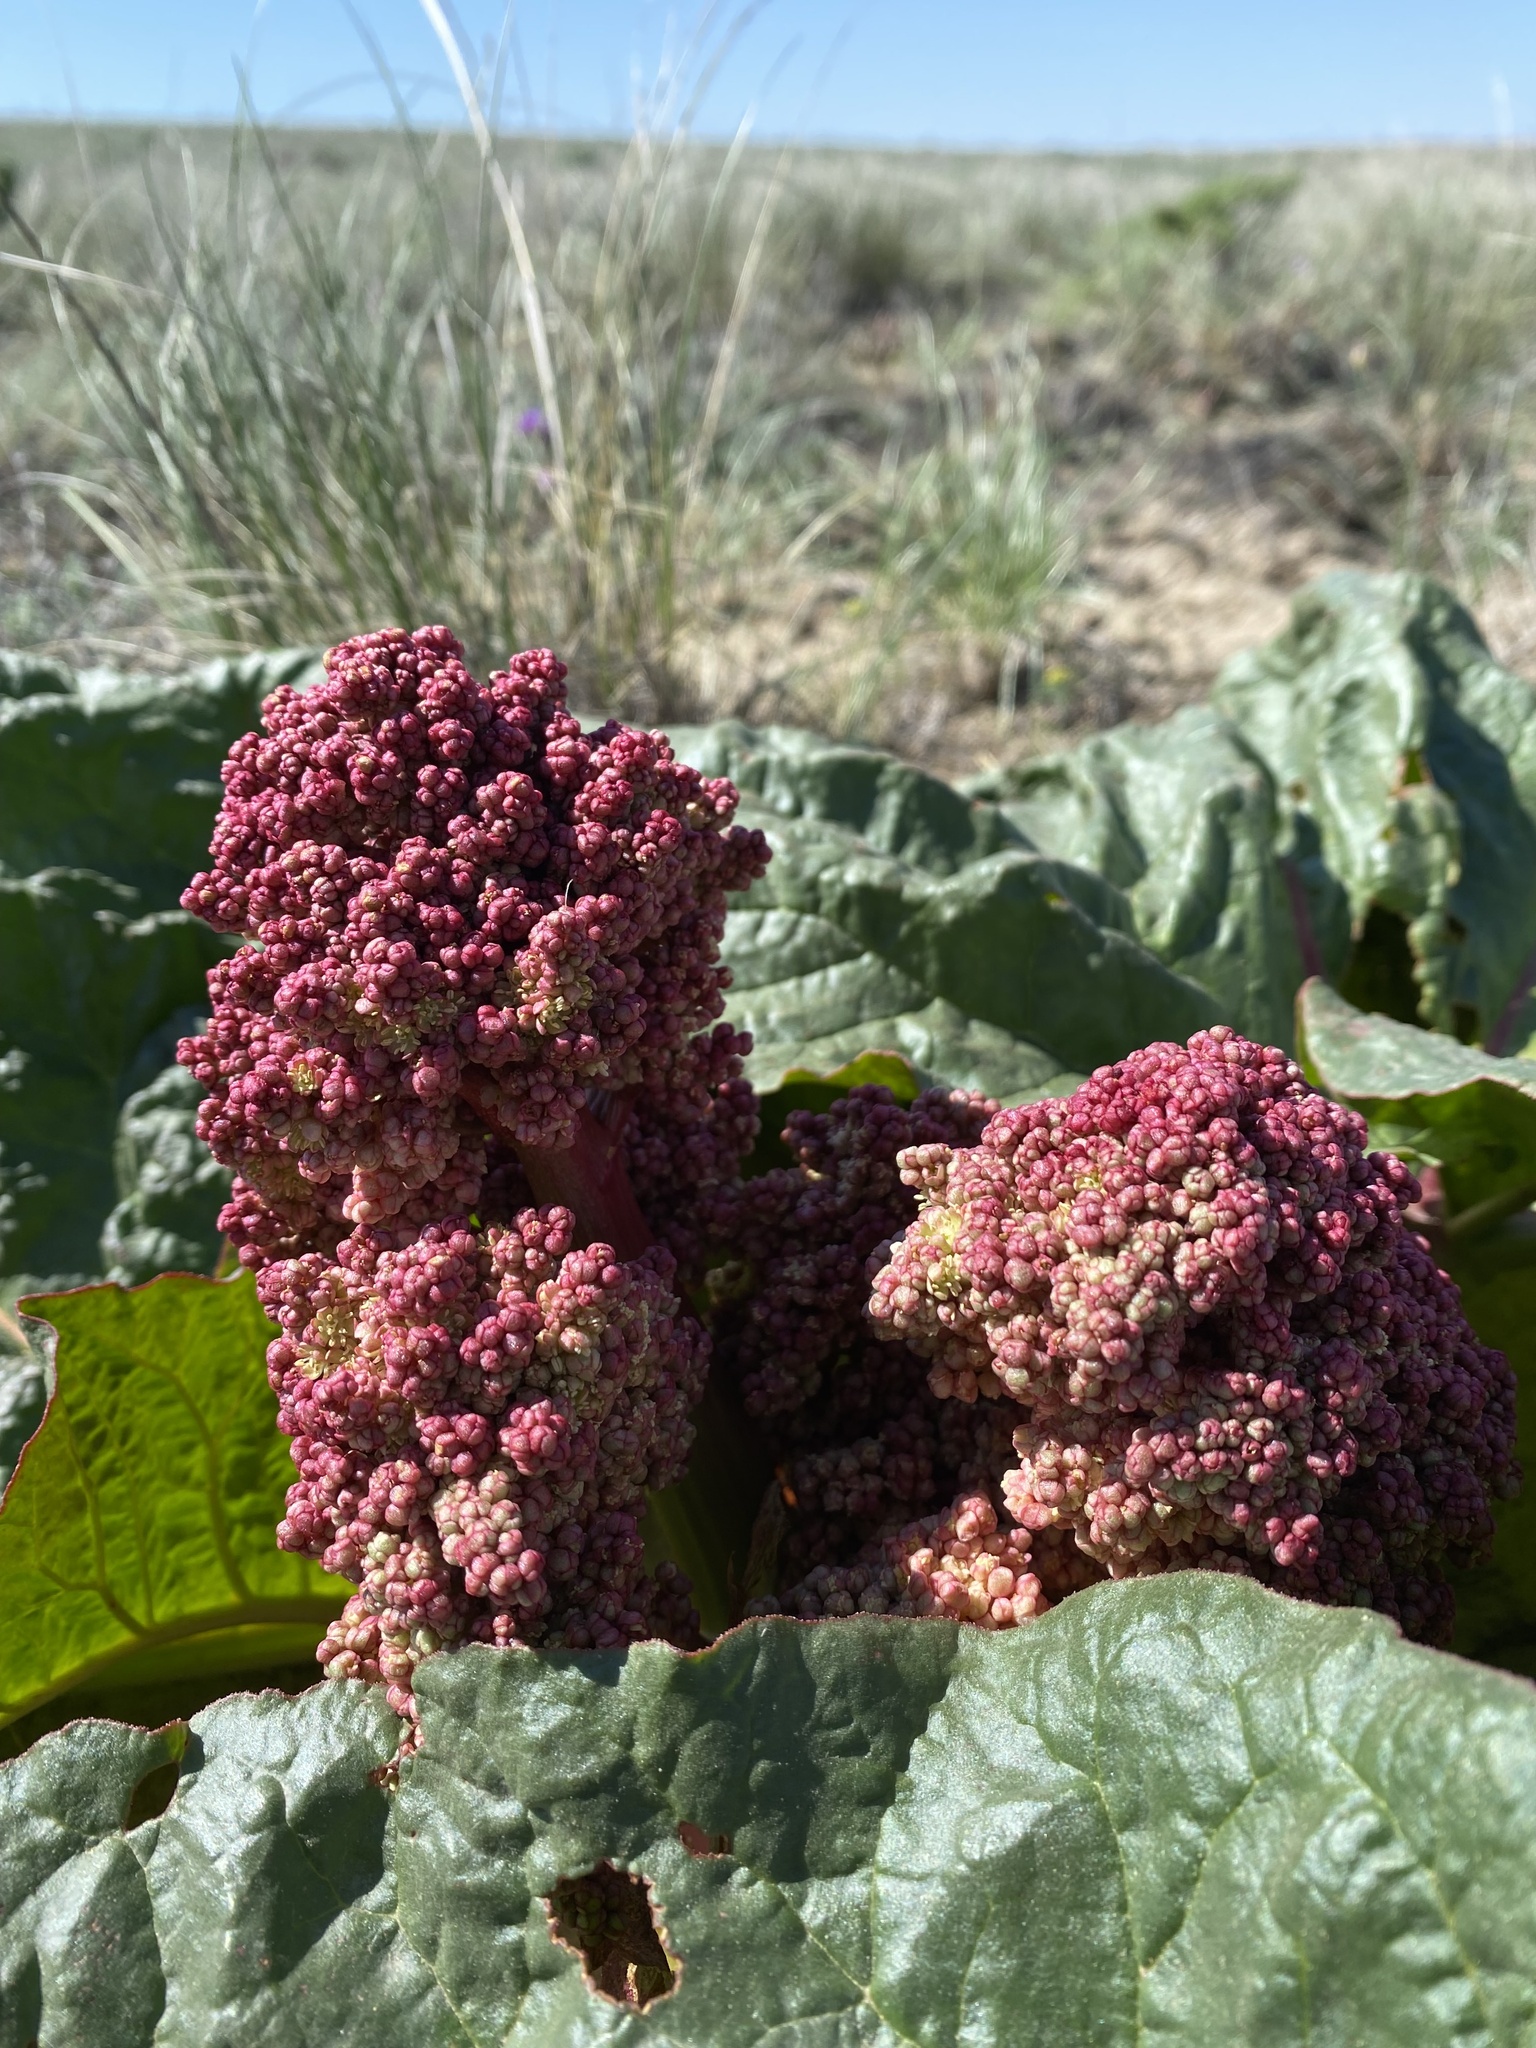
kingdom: Plantae
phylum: Tracheophyta
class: Magnoliopsida
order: Caryophyllales
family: Polygonaceae
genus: Rheum
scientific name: Rheum tataricum
